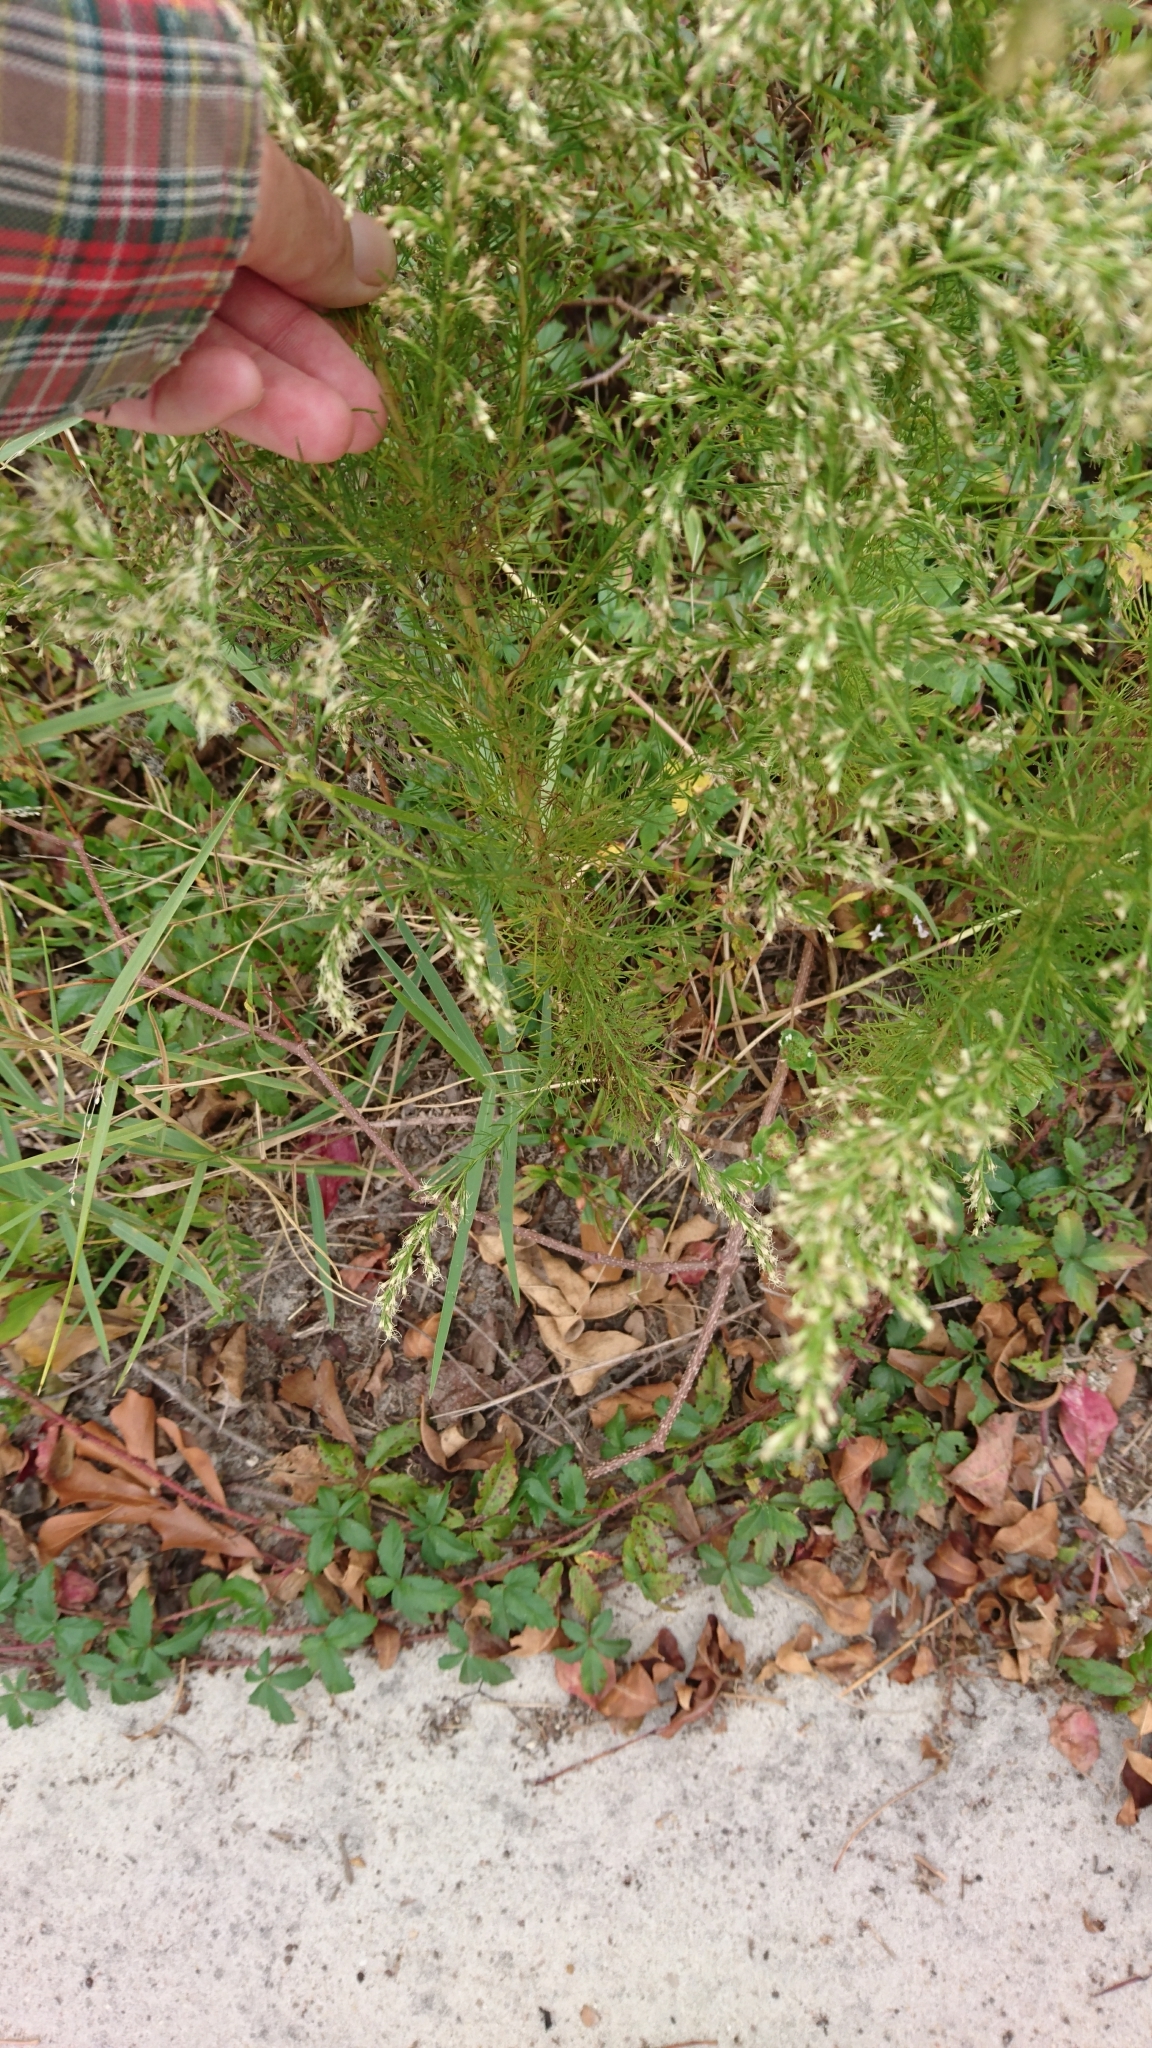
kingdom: Plantae
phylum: Tracheophyta
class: Magnoliopsida
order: Asterales
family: Asteraceae
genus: Eupatorium
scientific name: Eupatorium capillifolium
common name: Dog-fennel
